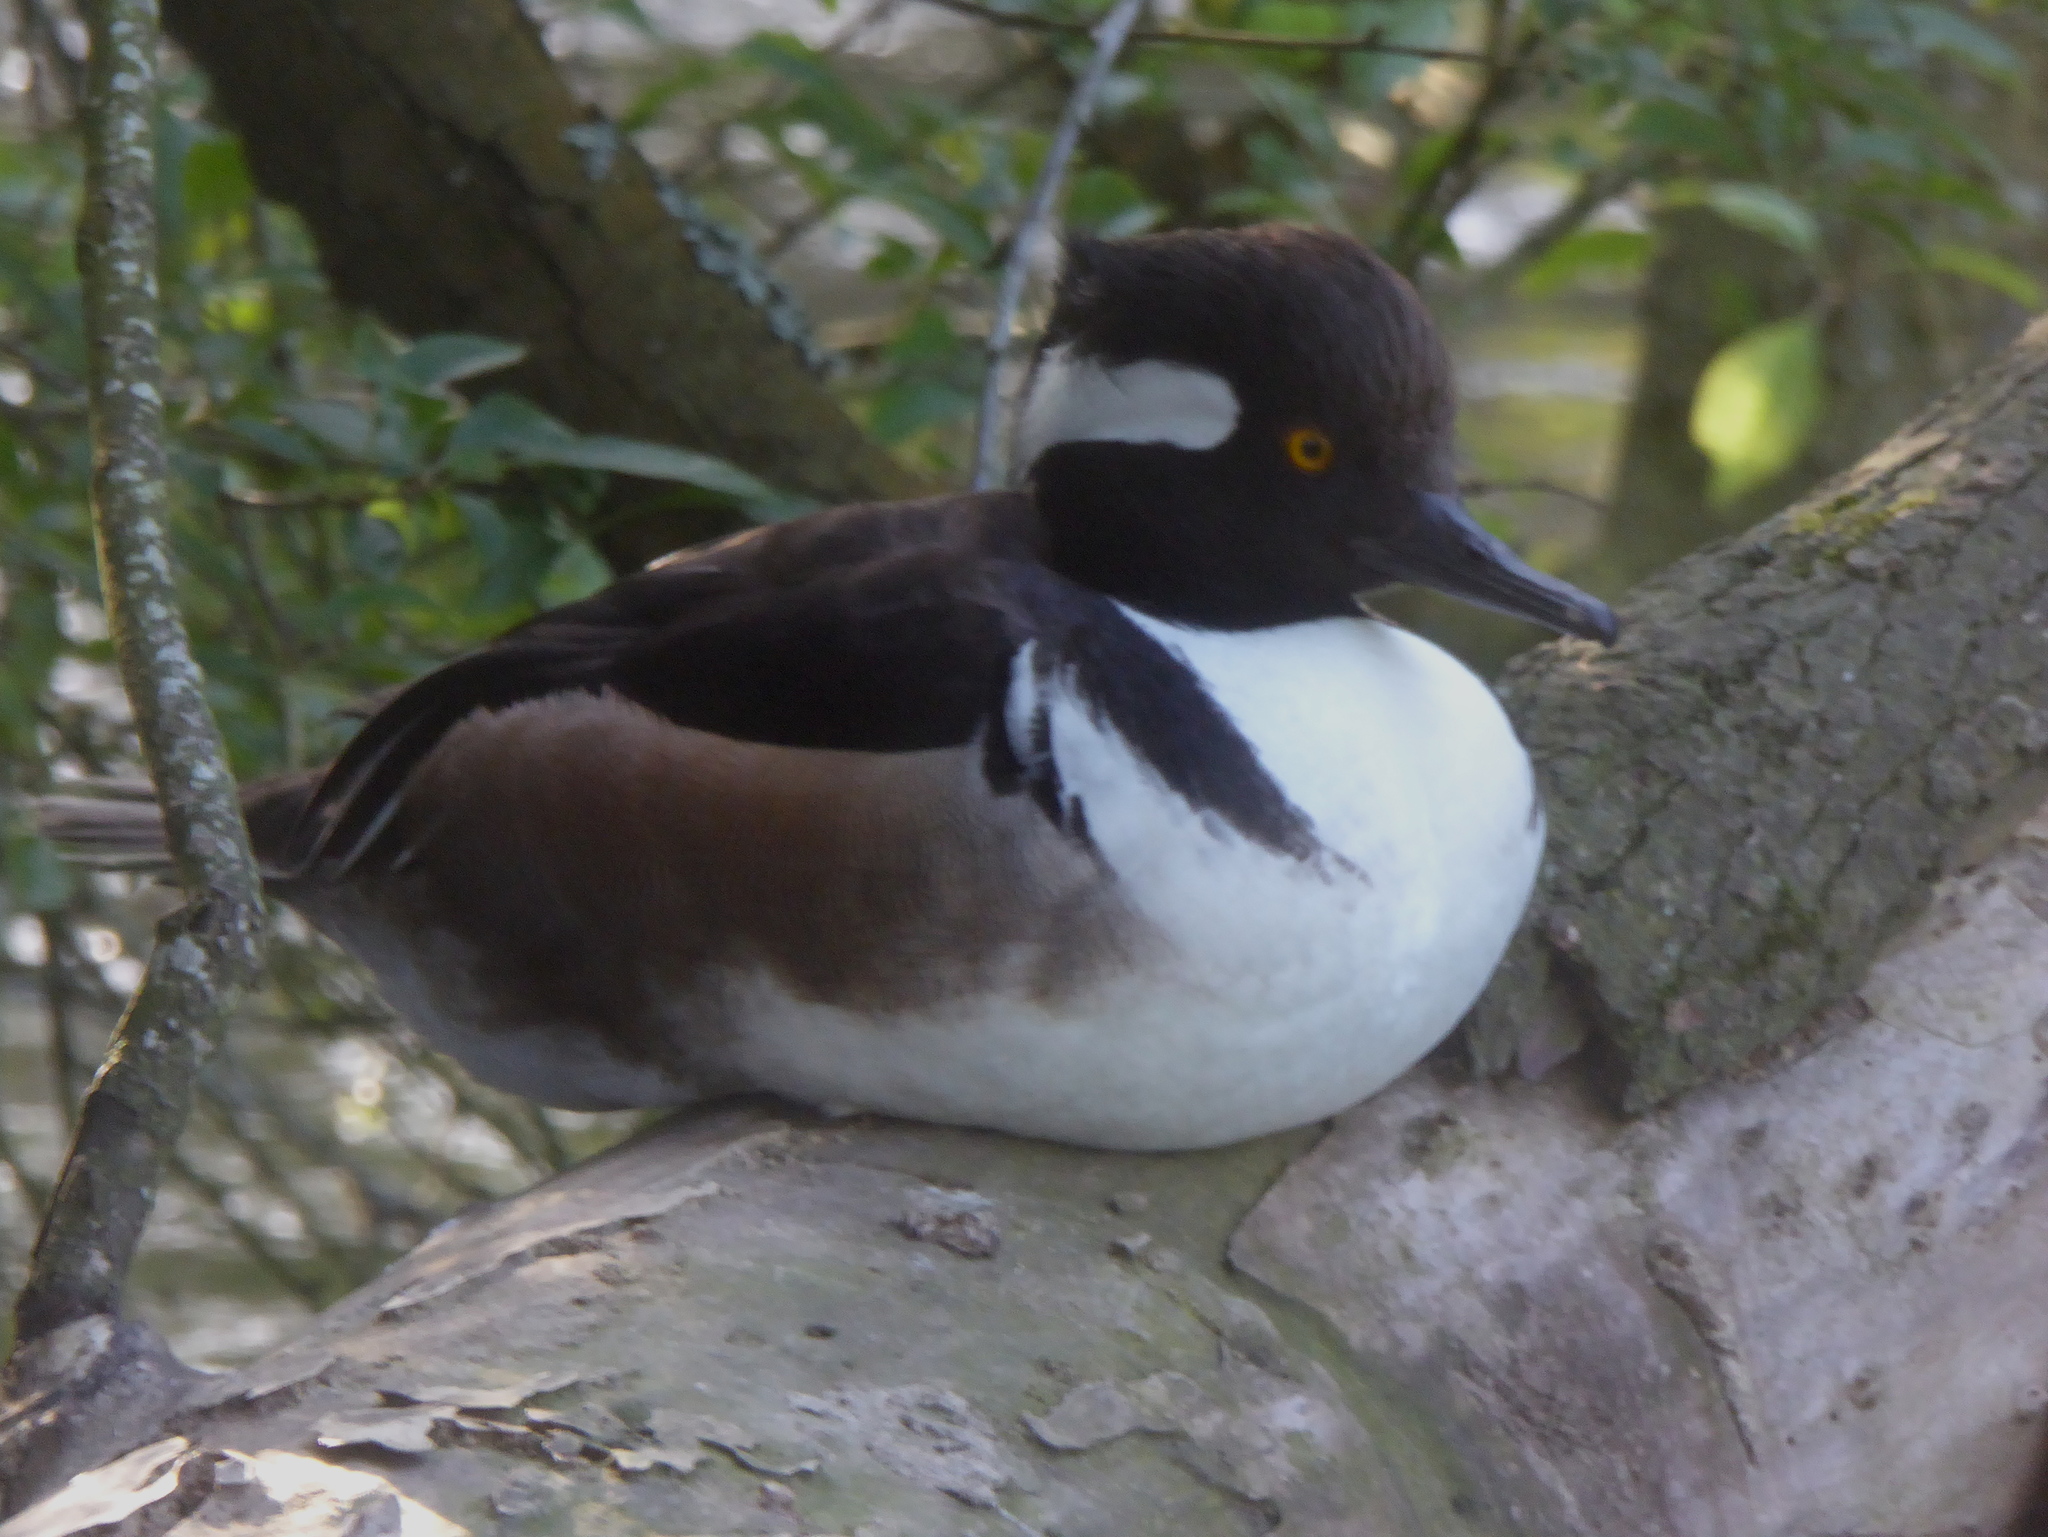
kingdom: Animalia
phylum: Chordata
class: Aves
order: Anseriformes
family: Anatidae
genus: Lophodytes
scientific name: Lophodytes cucullatus
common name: Hooded merganser
